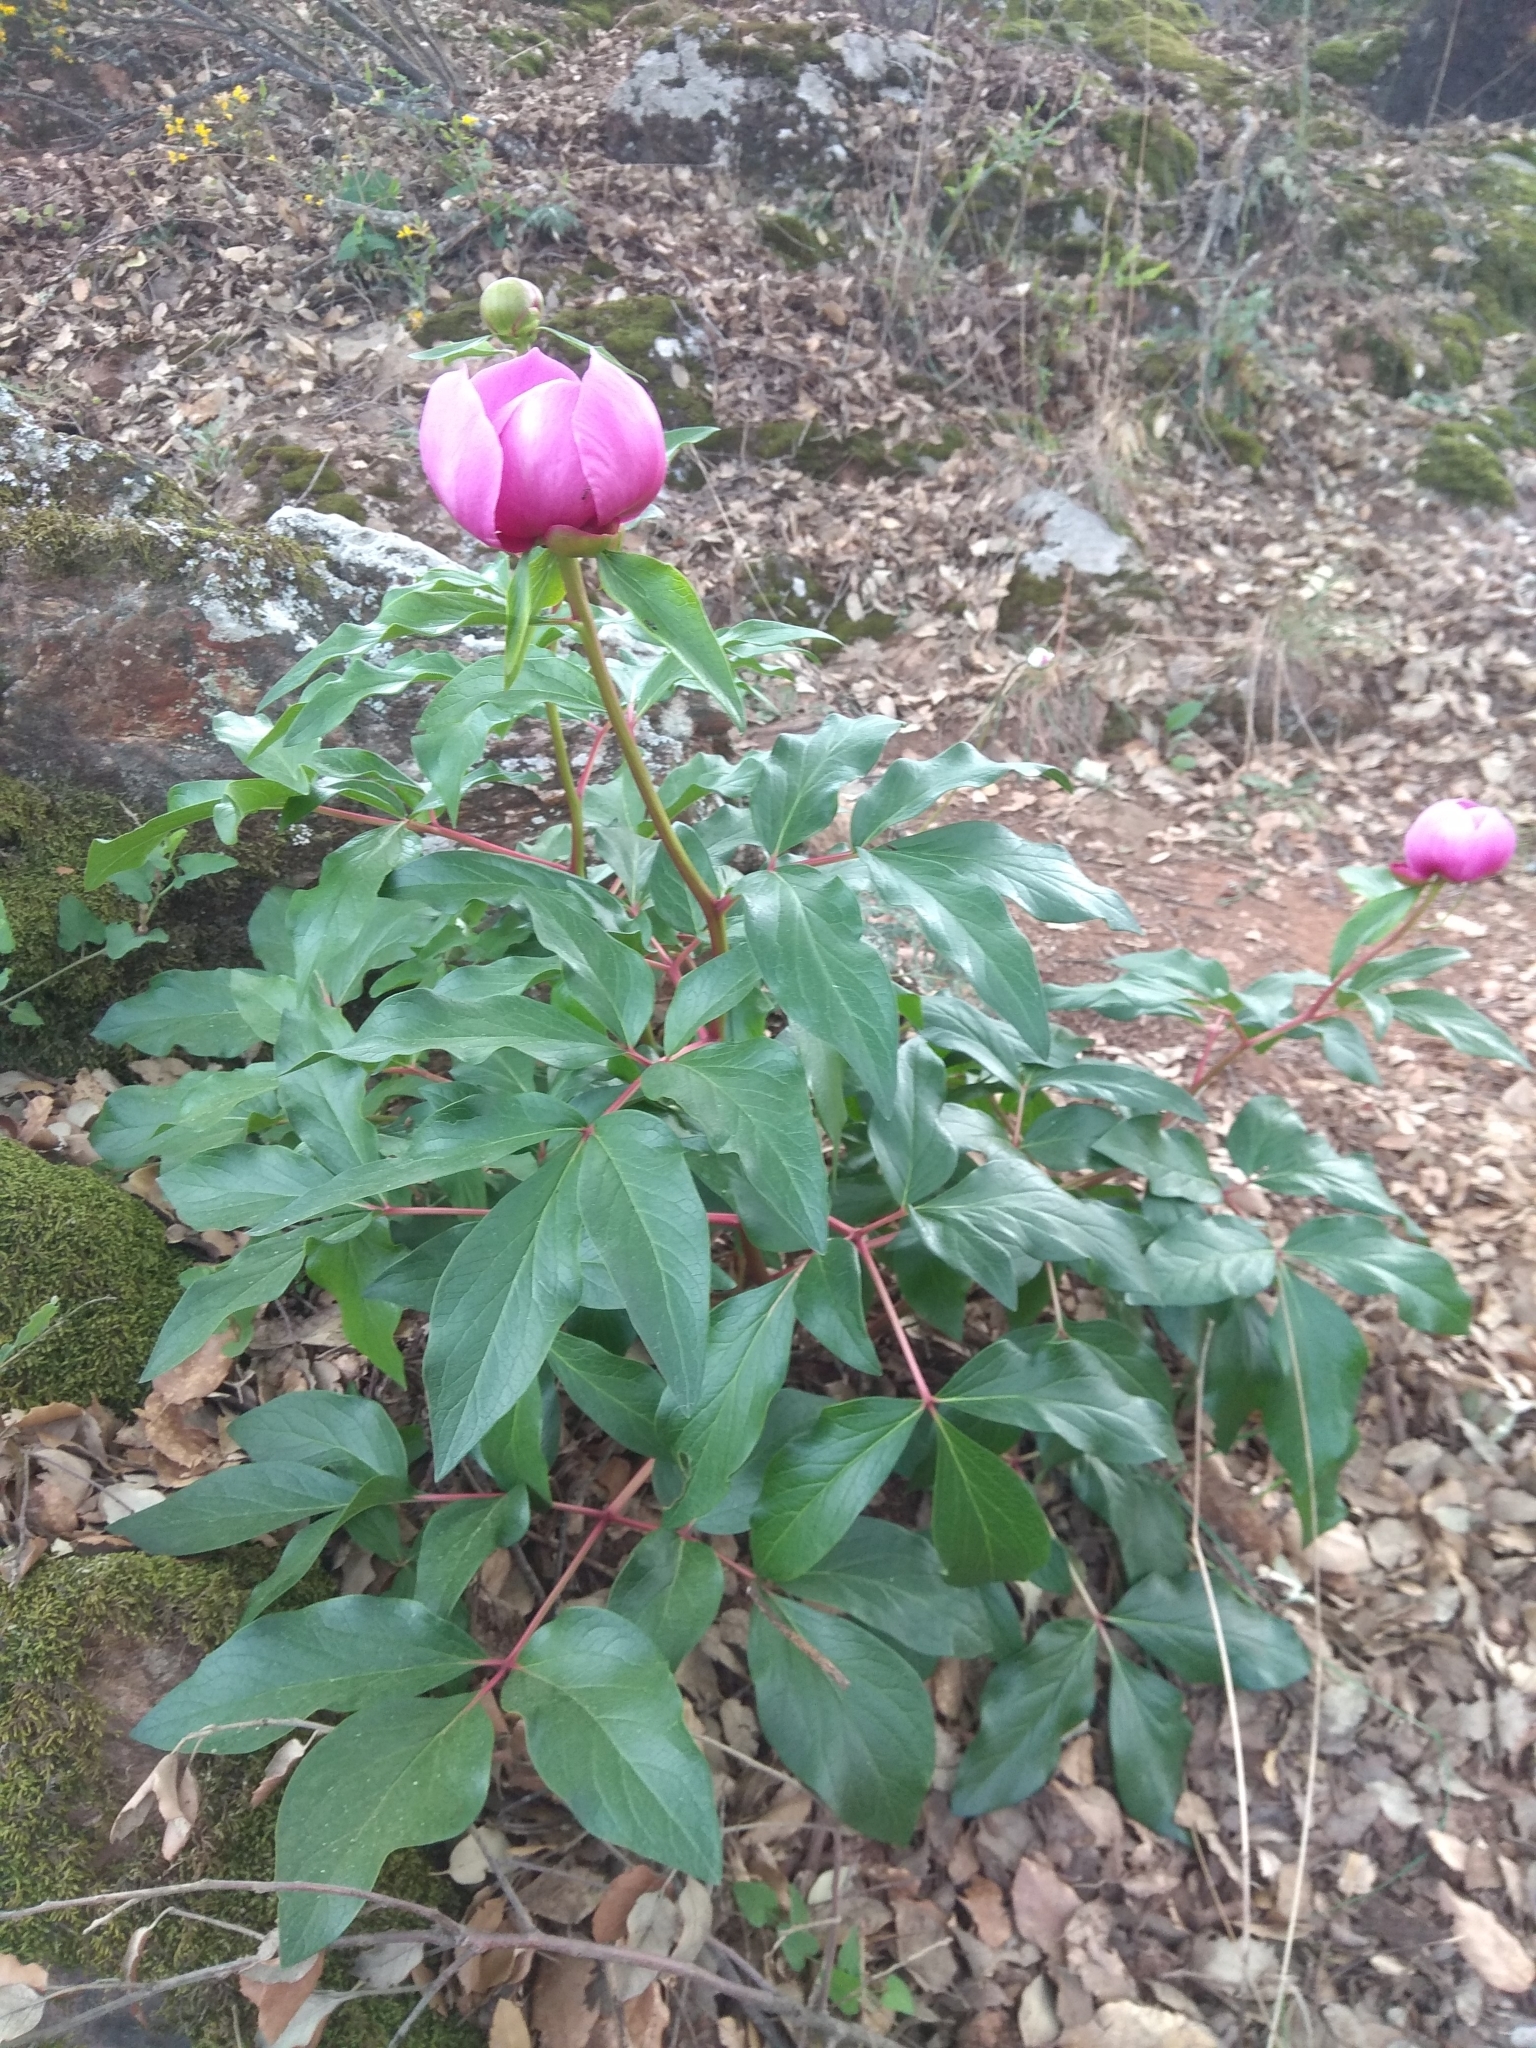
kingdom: Plantae
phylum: Tracheophyta
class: Magnoliopsida
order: Saxifragales
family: Paeoniaceae
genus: Paeonia
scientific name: Paeonia broteroi
